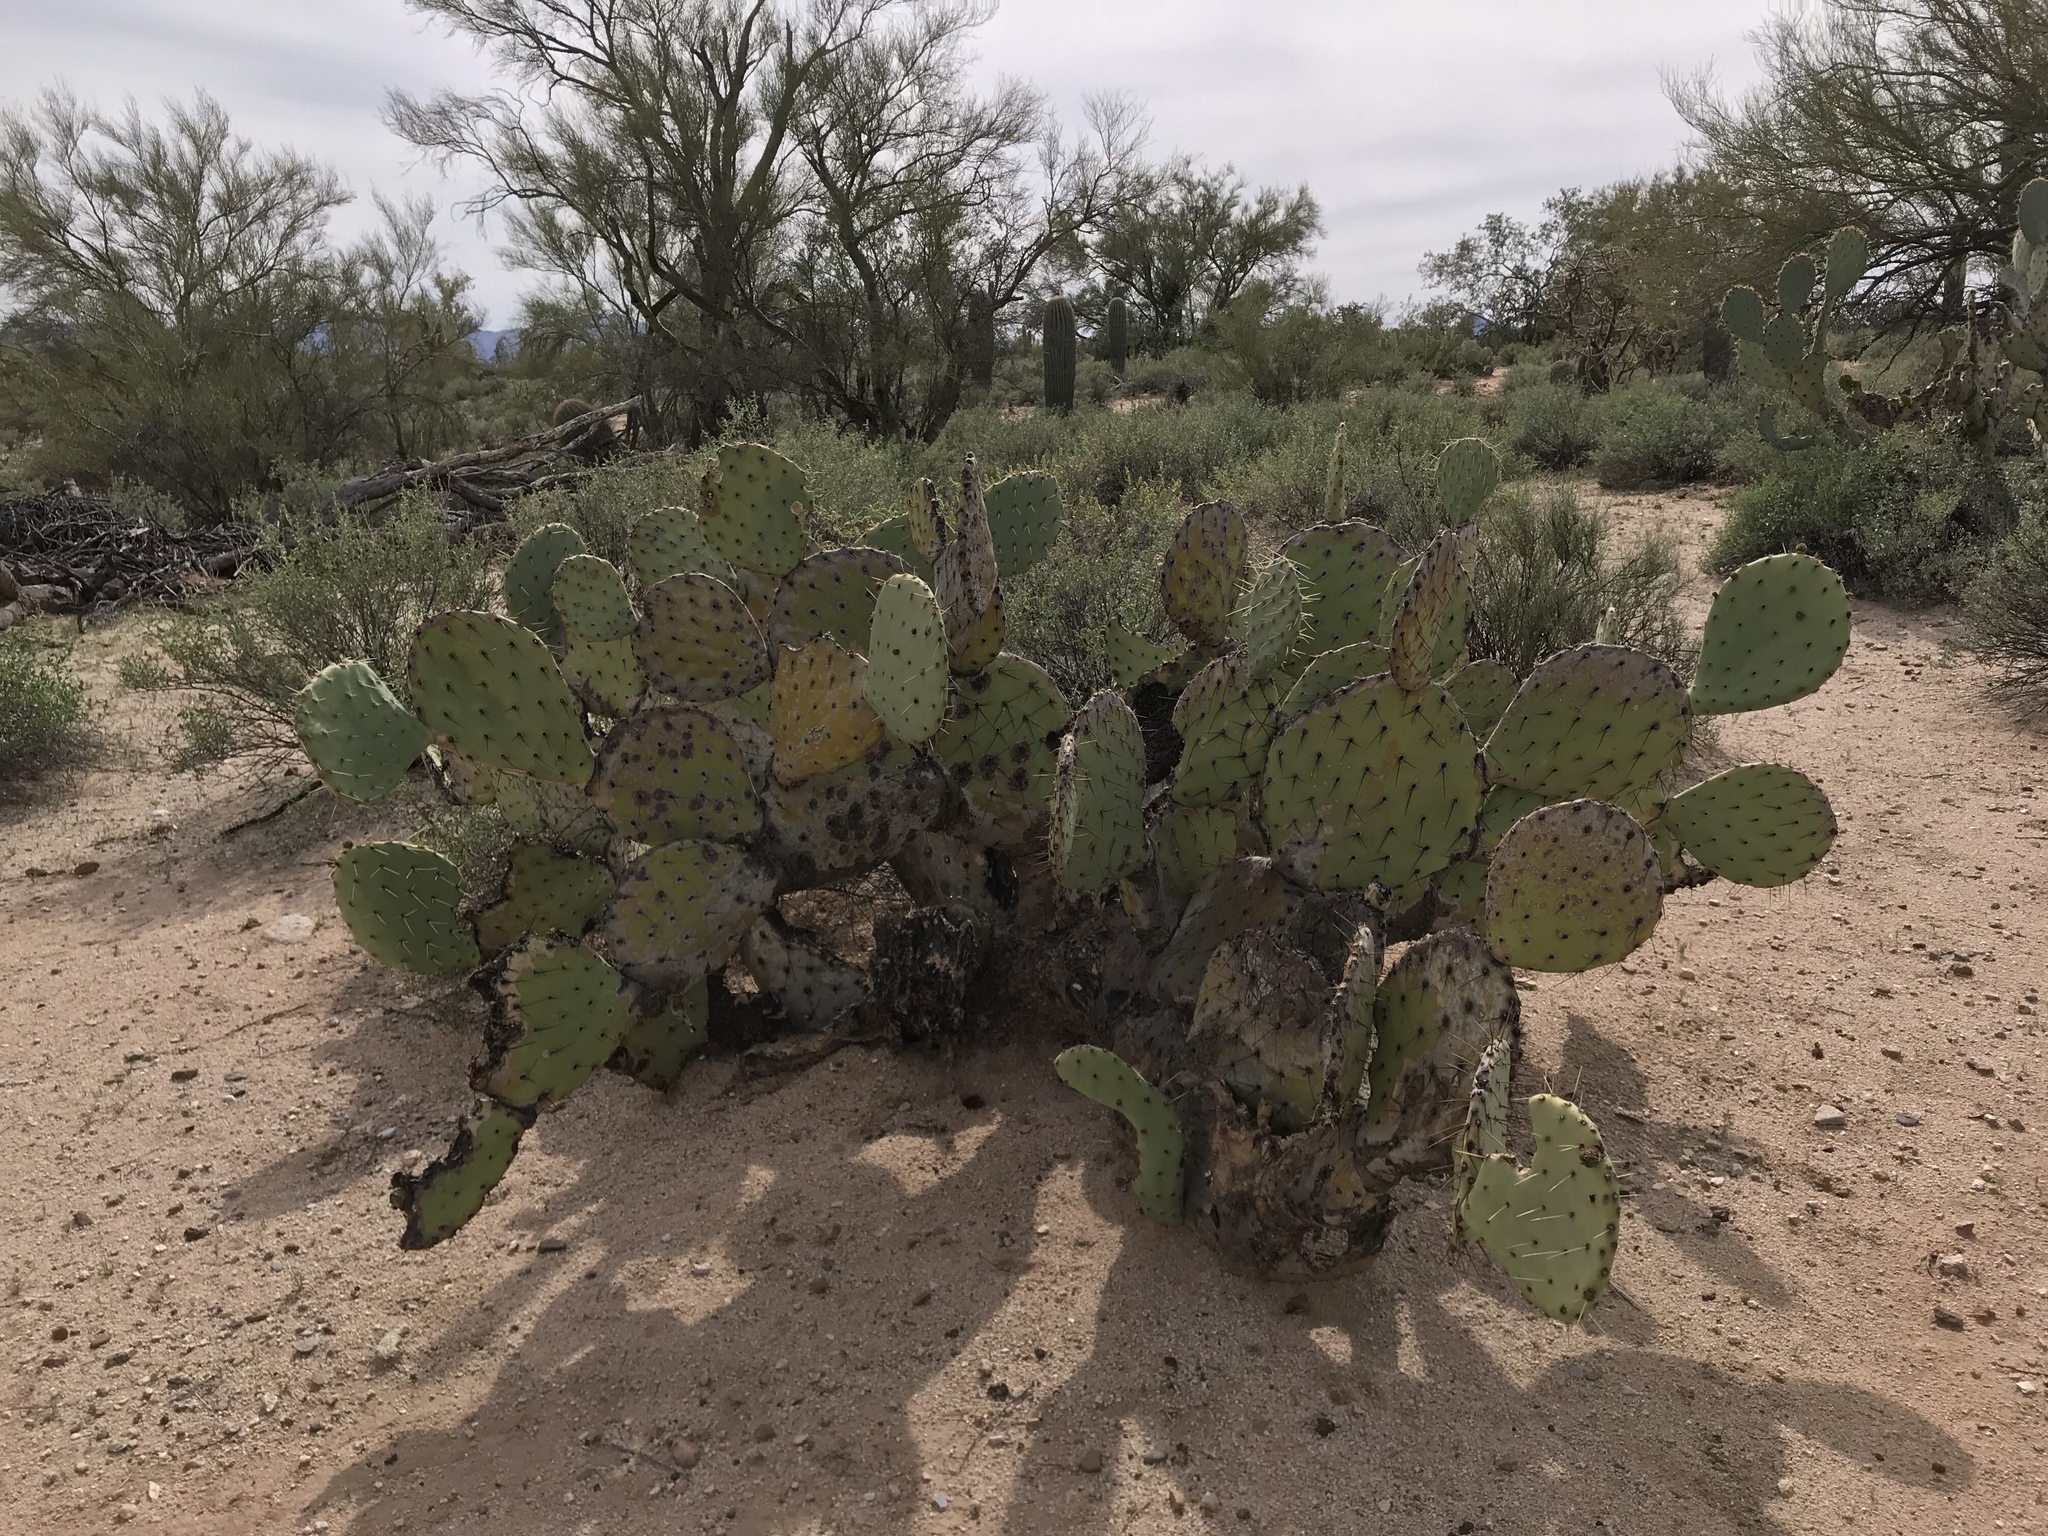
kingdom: Plantae
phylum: Tracheophyta
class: Magnoliopsida
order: Caryophyllales
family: Cactaceae
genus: Opuntia
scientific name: Opuntia orbiculata
